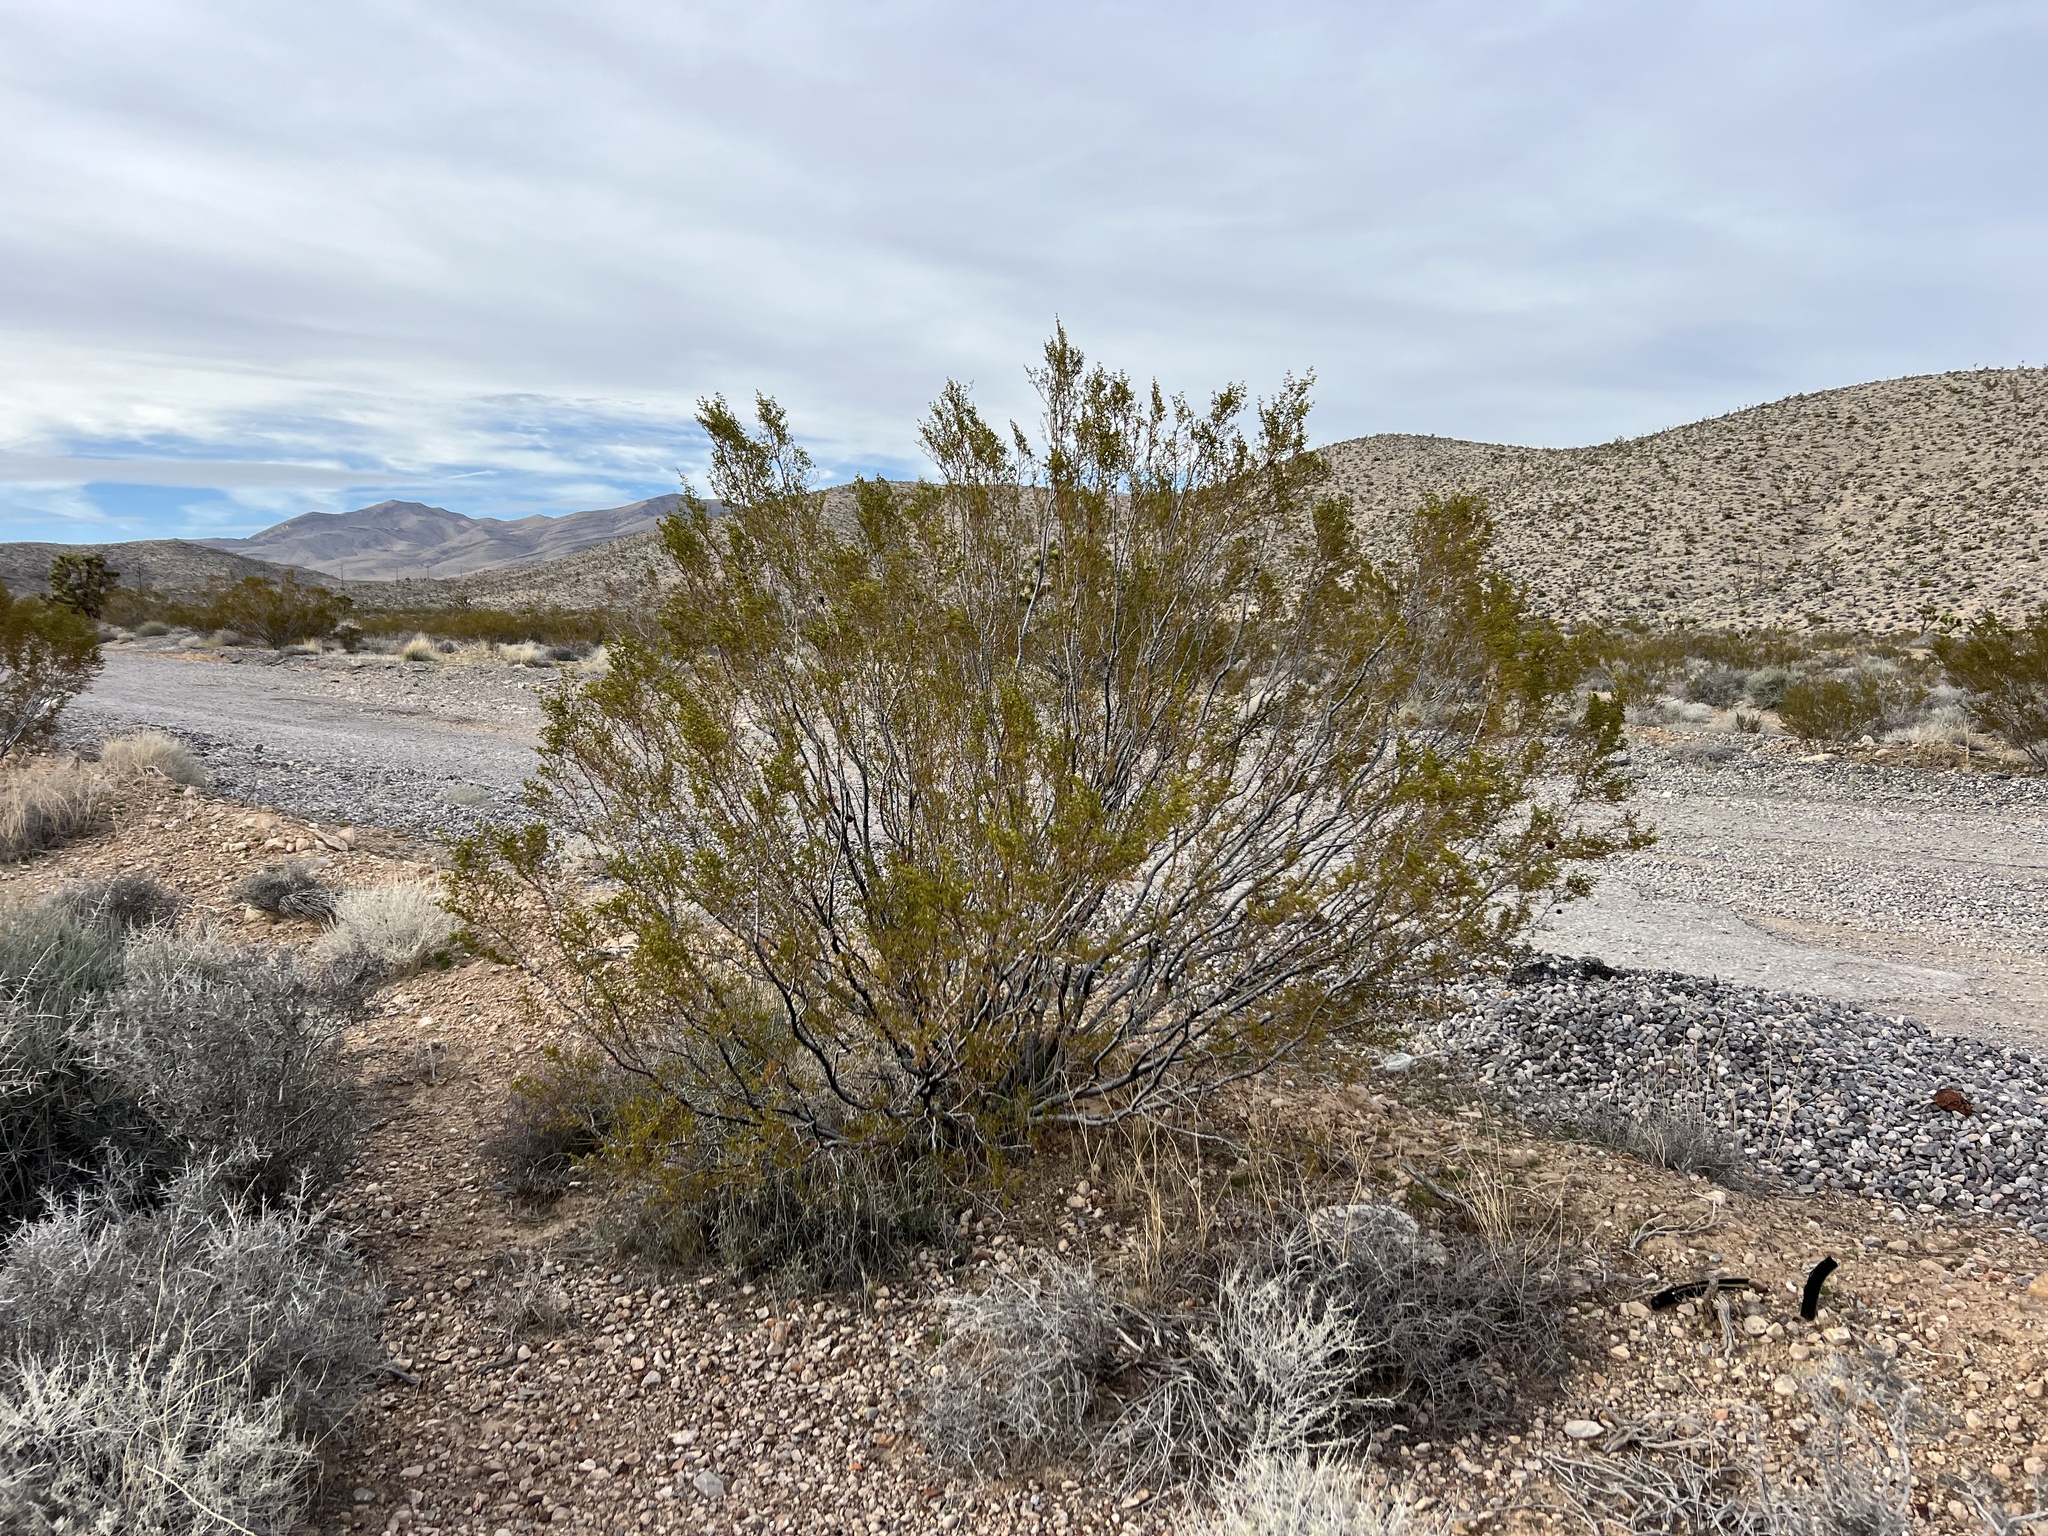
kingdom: Plantae
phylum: Tracheophyta
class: Magnoliopsida
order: Zygophyllales
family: Zygophyllaceae
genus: Larrea
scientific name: Larrea tridentata
